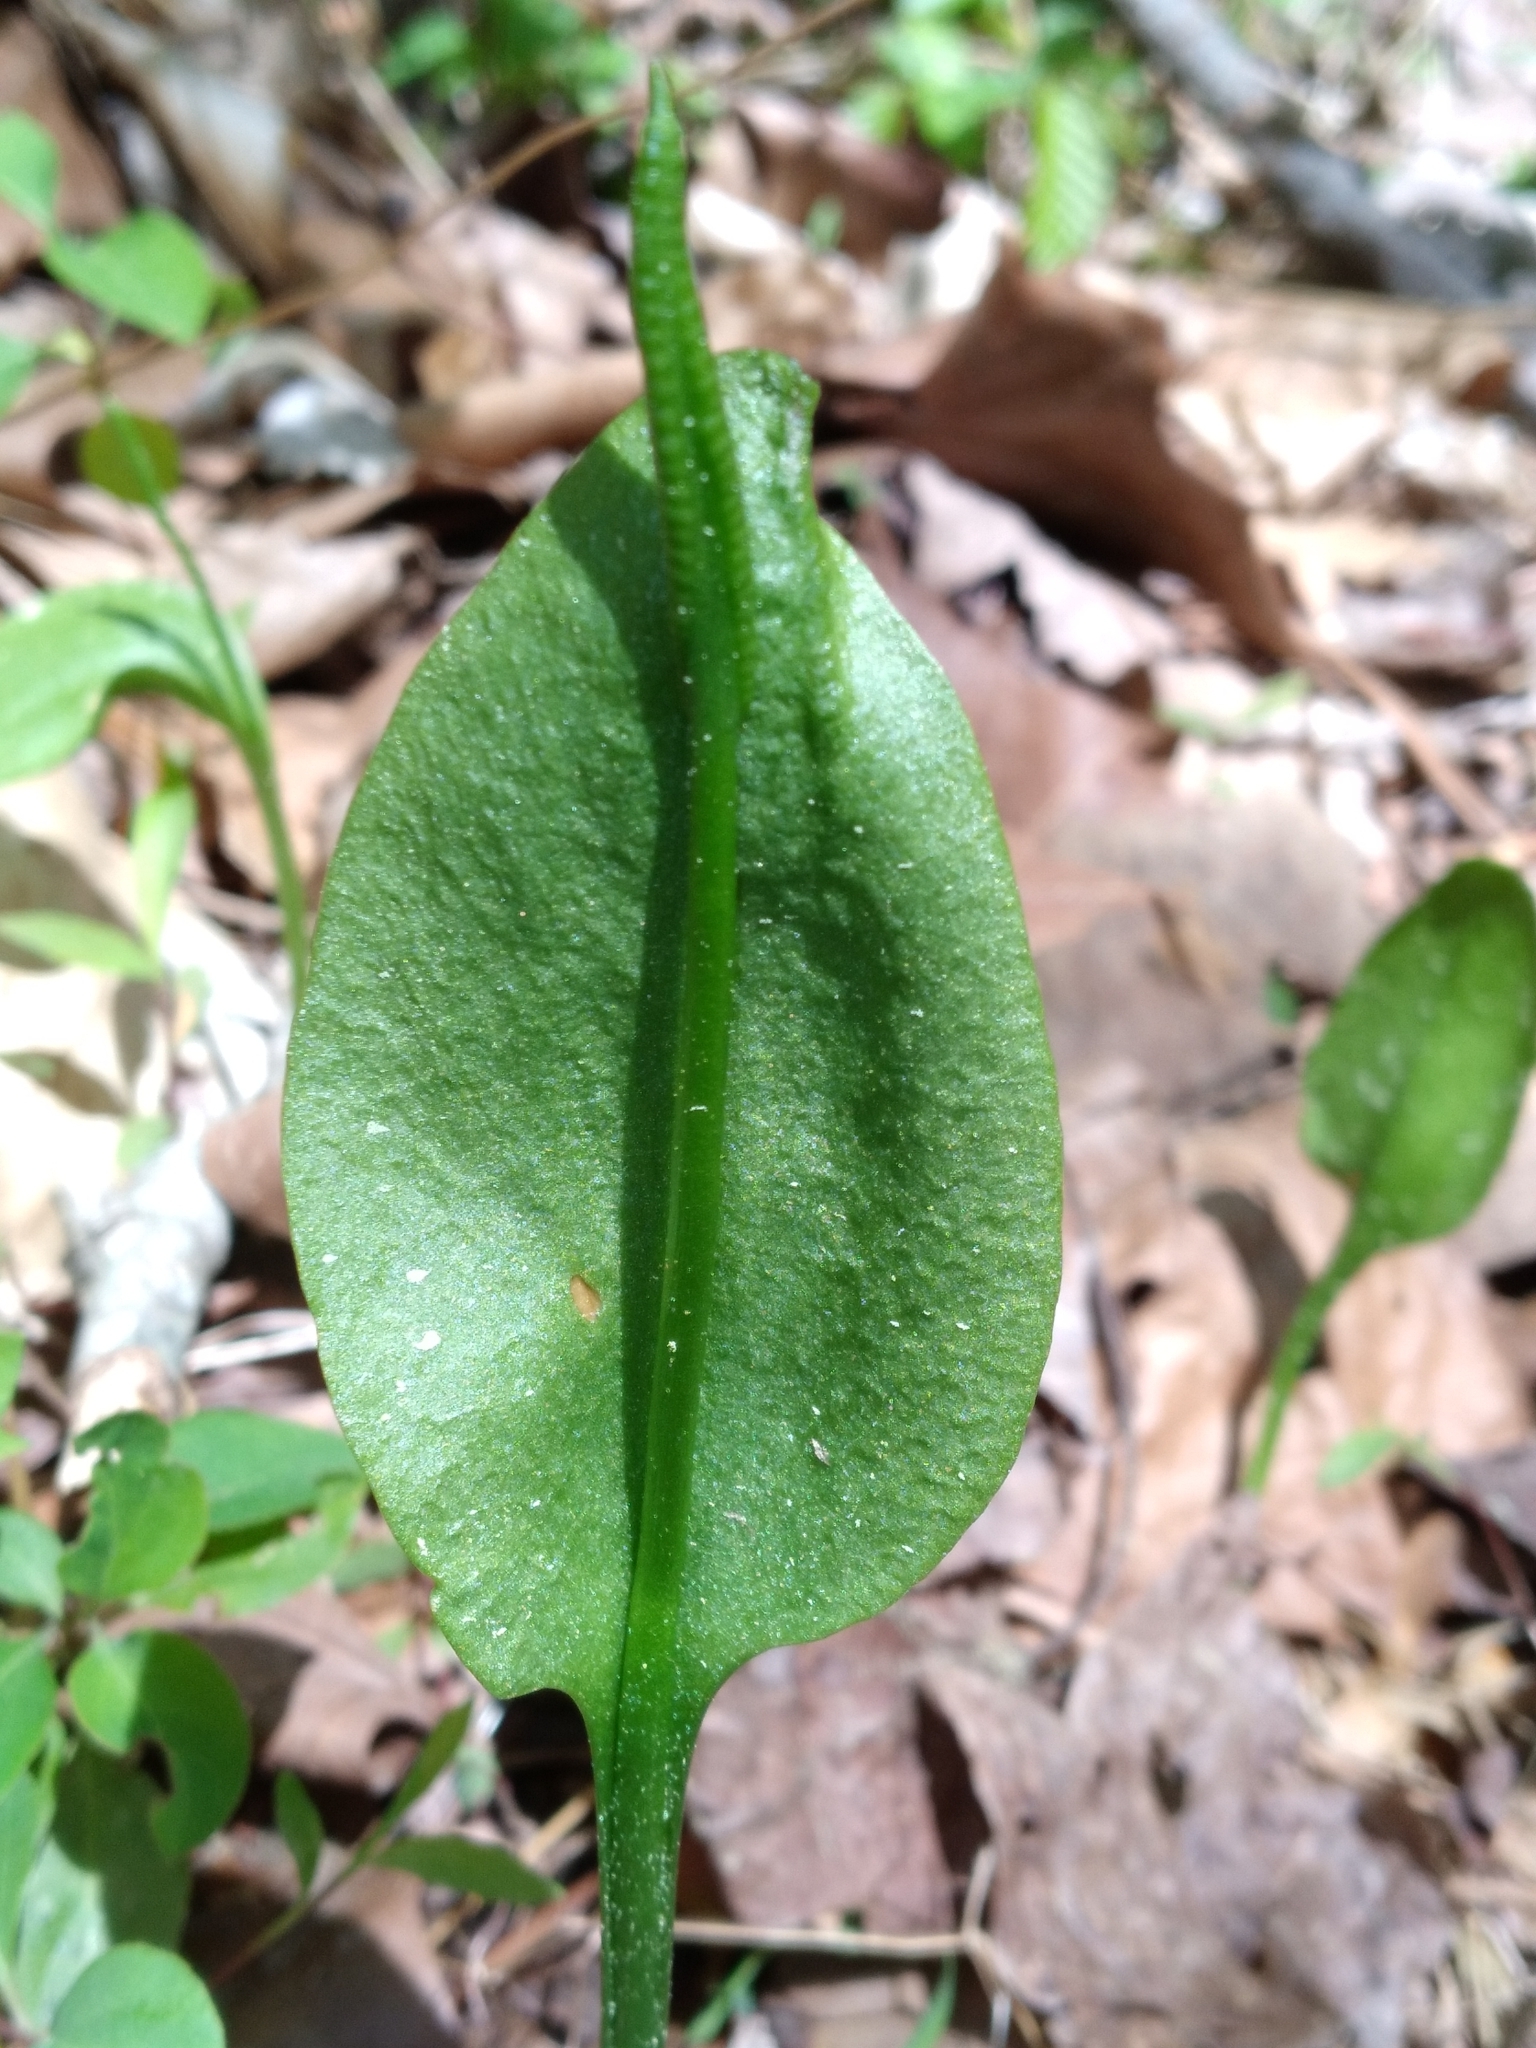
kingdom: Plantae
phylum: Tracheophyta
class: Polypodiopsida
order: Ophioglossales
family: Ophioglossaceae
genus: Ophioglossum
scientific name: Ophioglossum vulgatum
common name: Adder's-tongue
